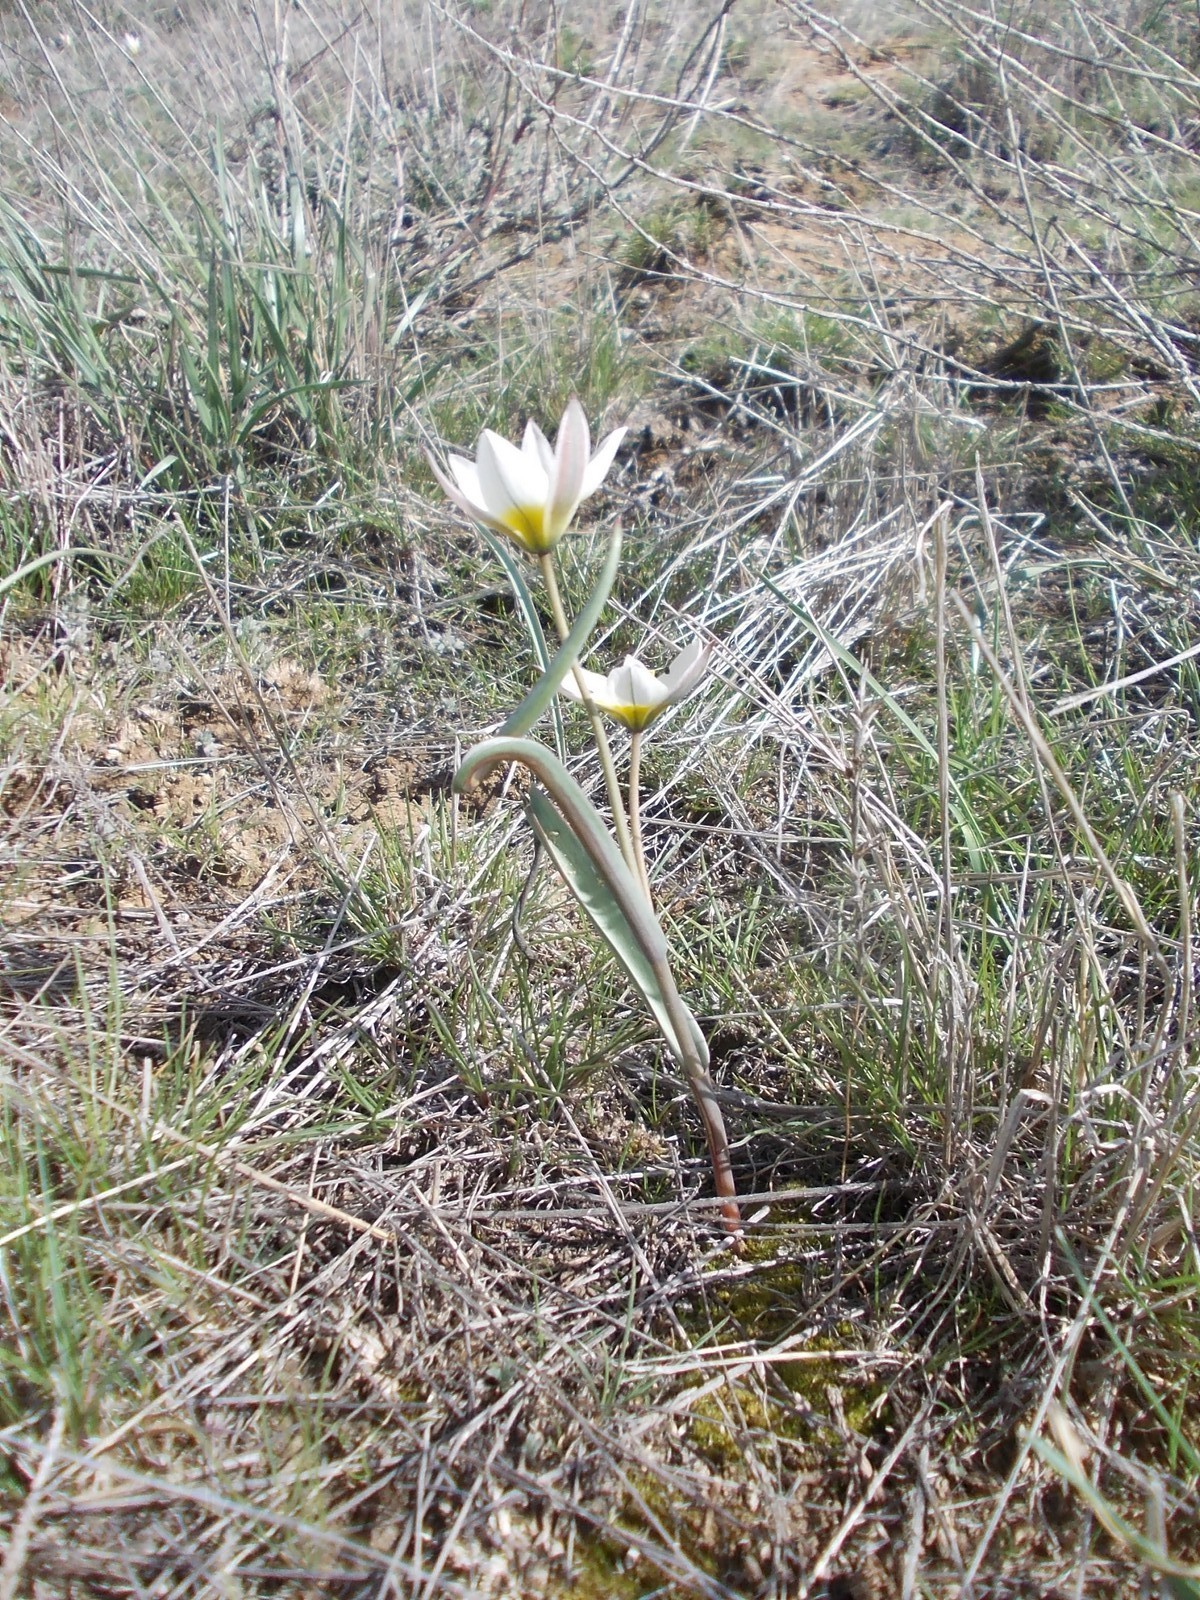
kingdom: Plantae
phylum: Tracheophyta
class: Liliopsida
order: Liliales
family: Liliaceae
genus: Tulipa
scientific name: Tulipa biflora
